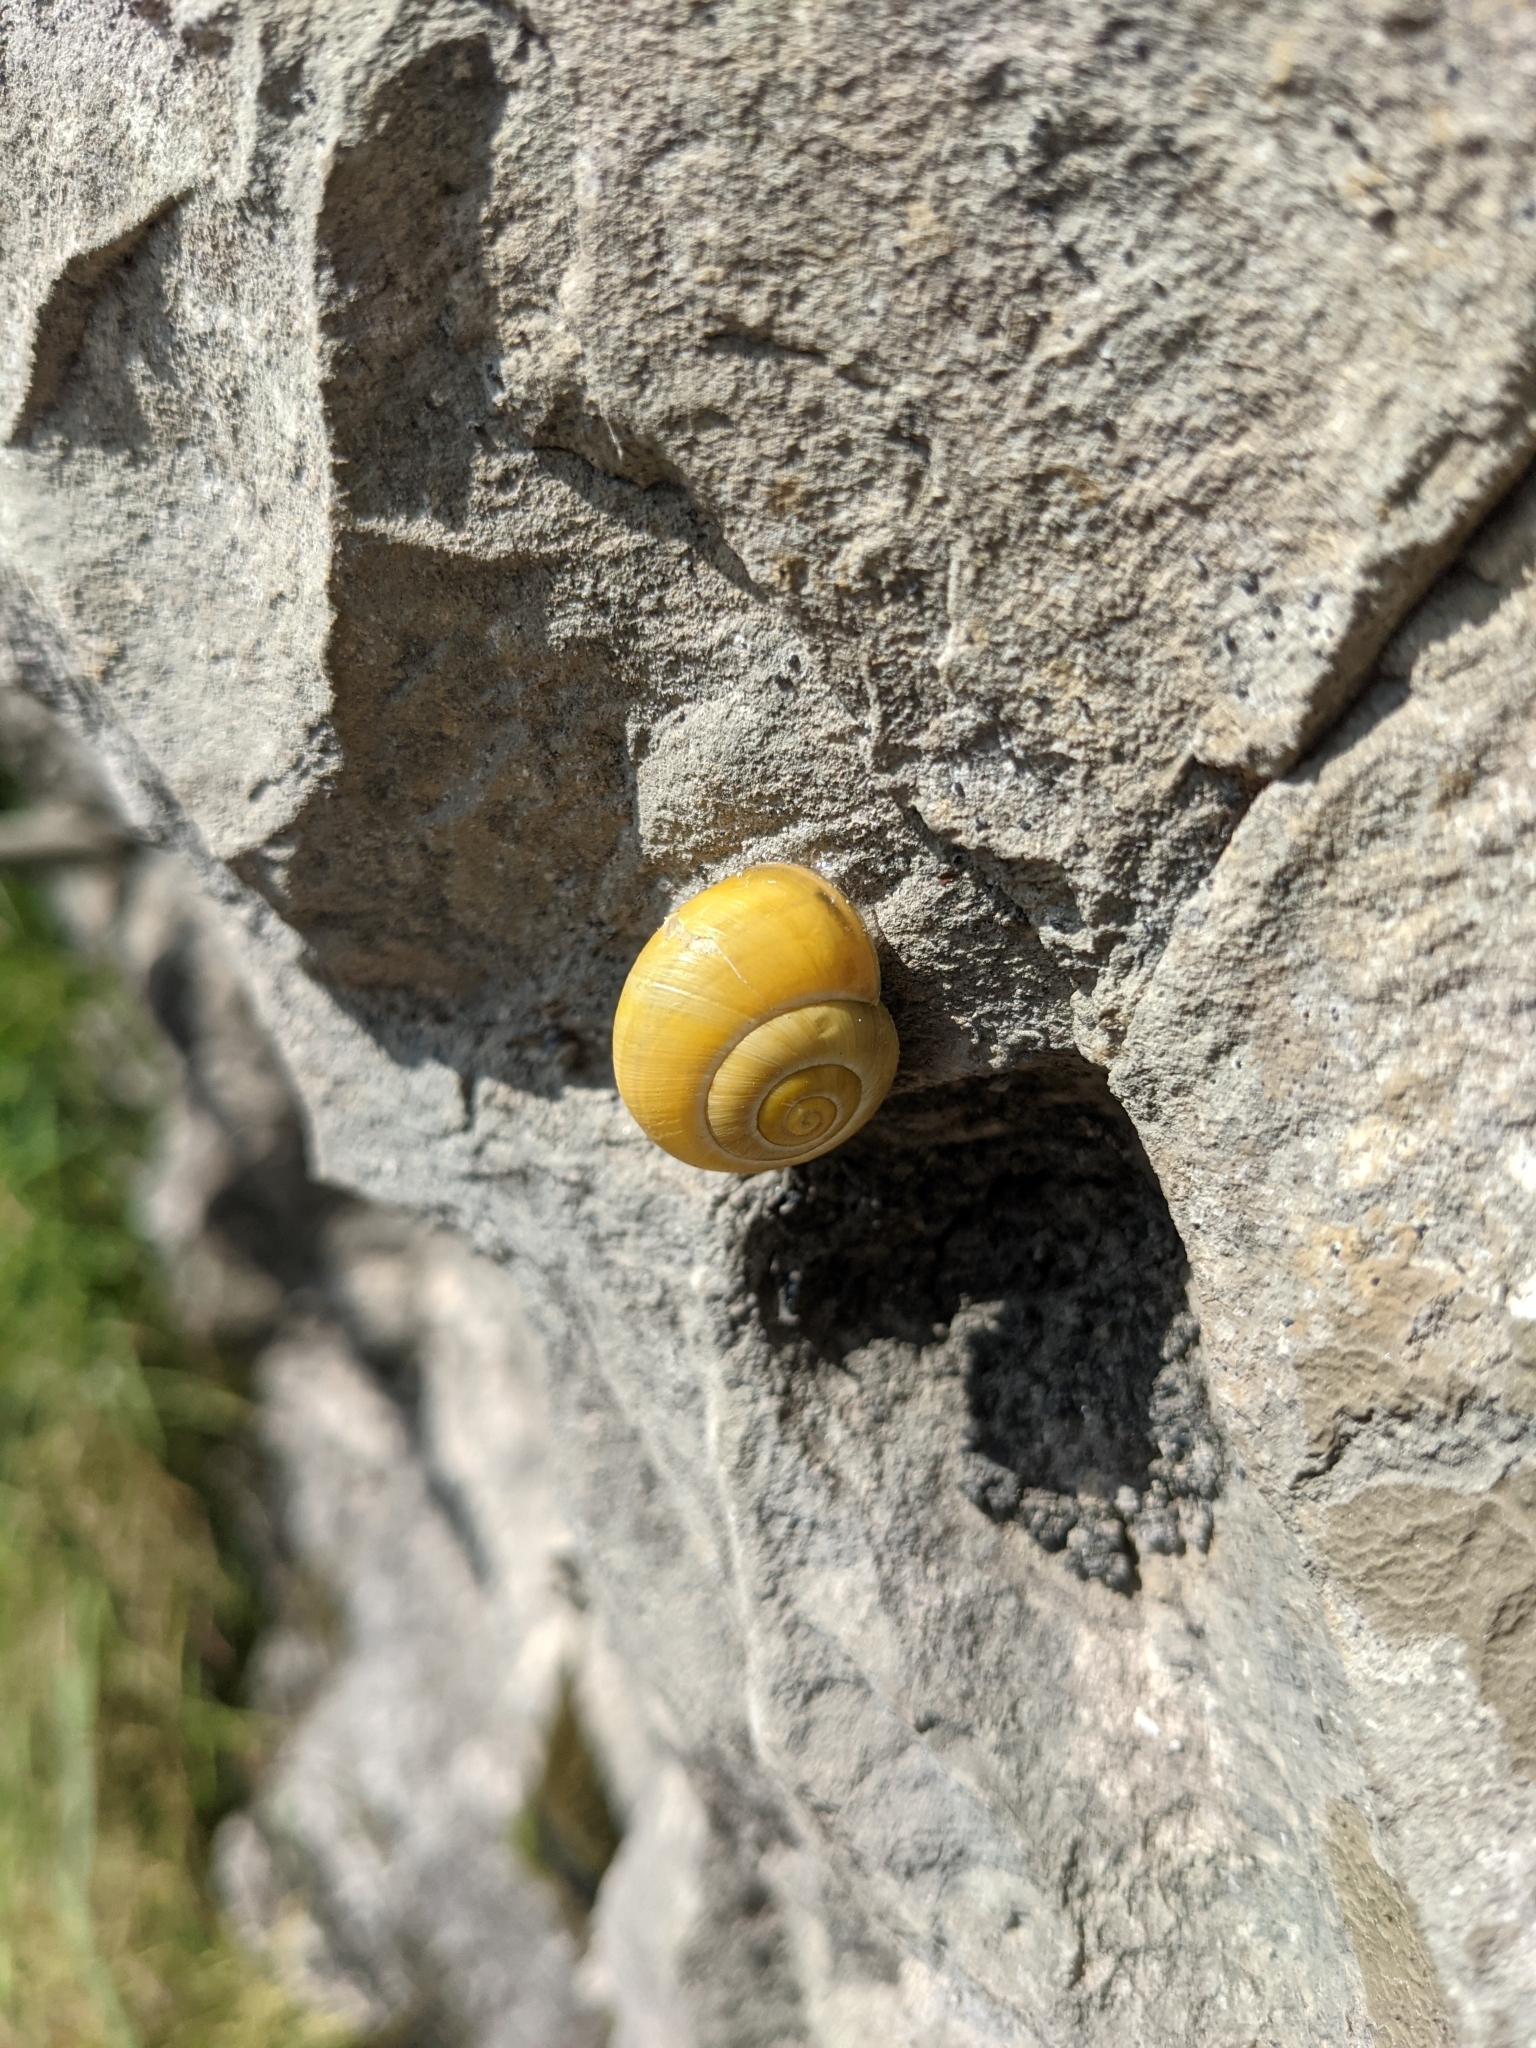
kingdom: Animalia
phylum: Mollusca
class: Gastropoda
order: Stylommatophora
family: Helicidae
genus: Cepaea
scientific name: Cepaea
